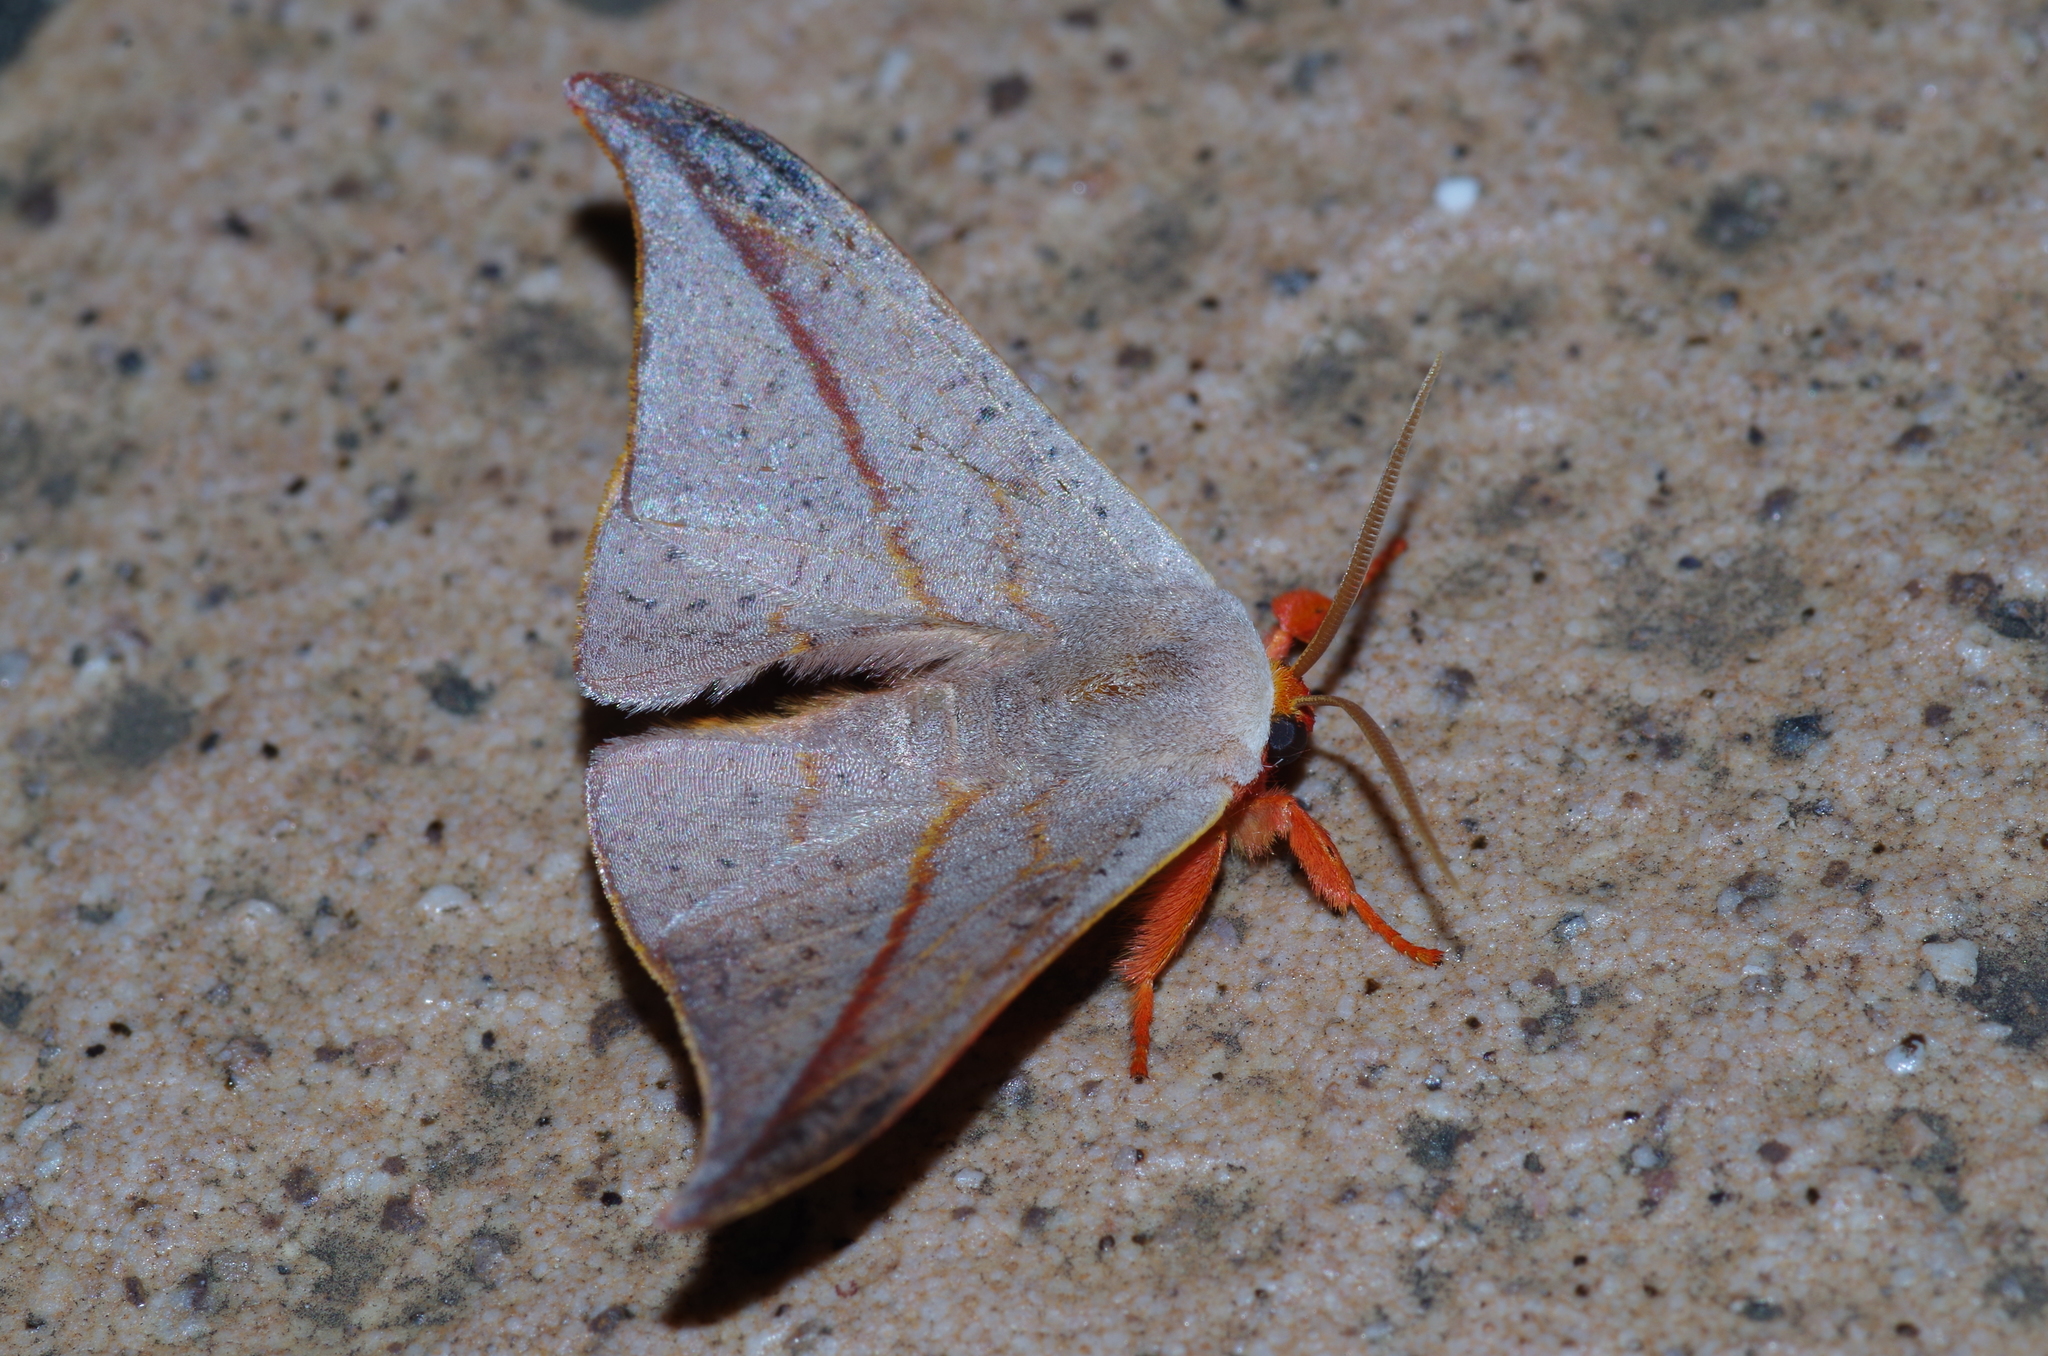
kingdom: Animalia
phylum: Arthropoda
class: Insecta
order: Lepidoptera
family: Drepanidae
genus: Oreta
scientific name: Oreta insignis
